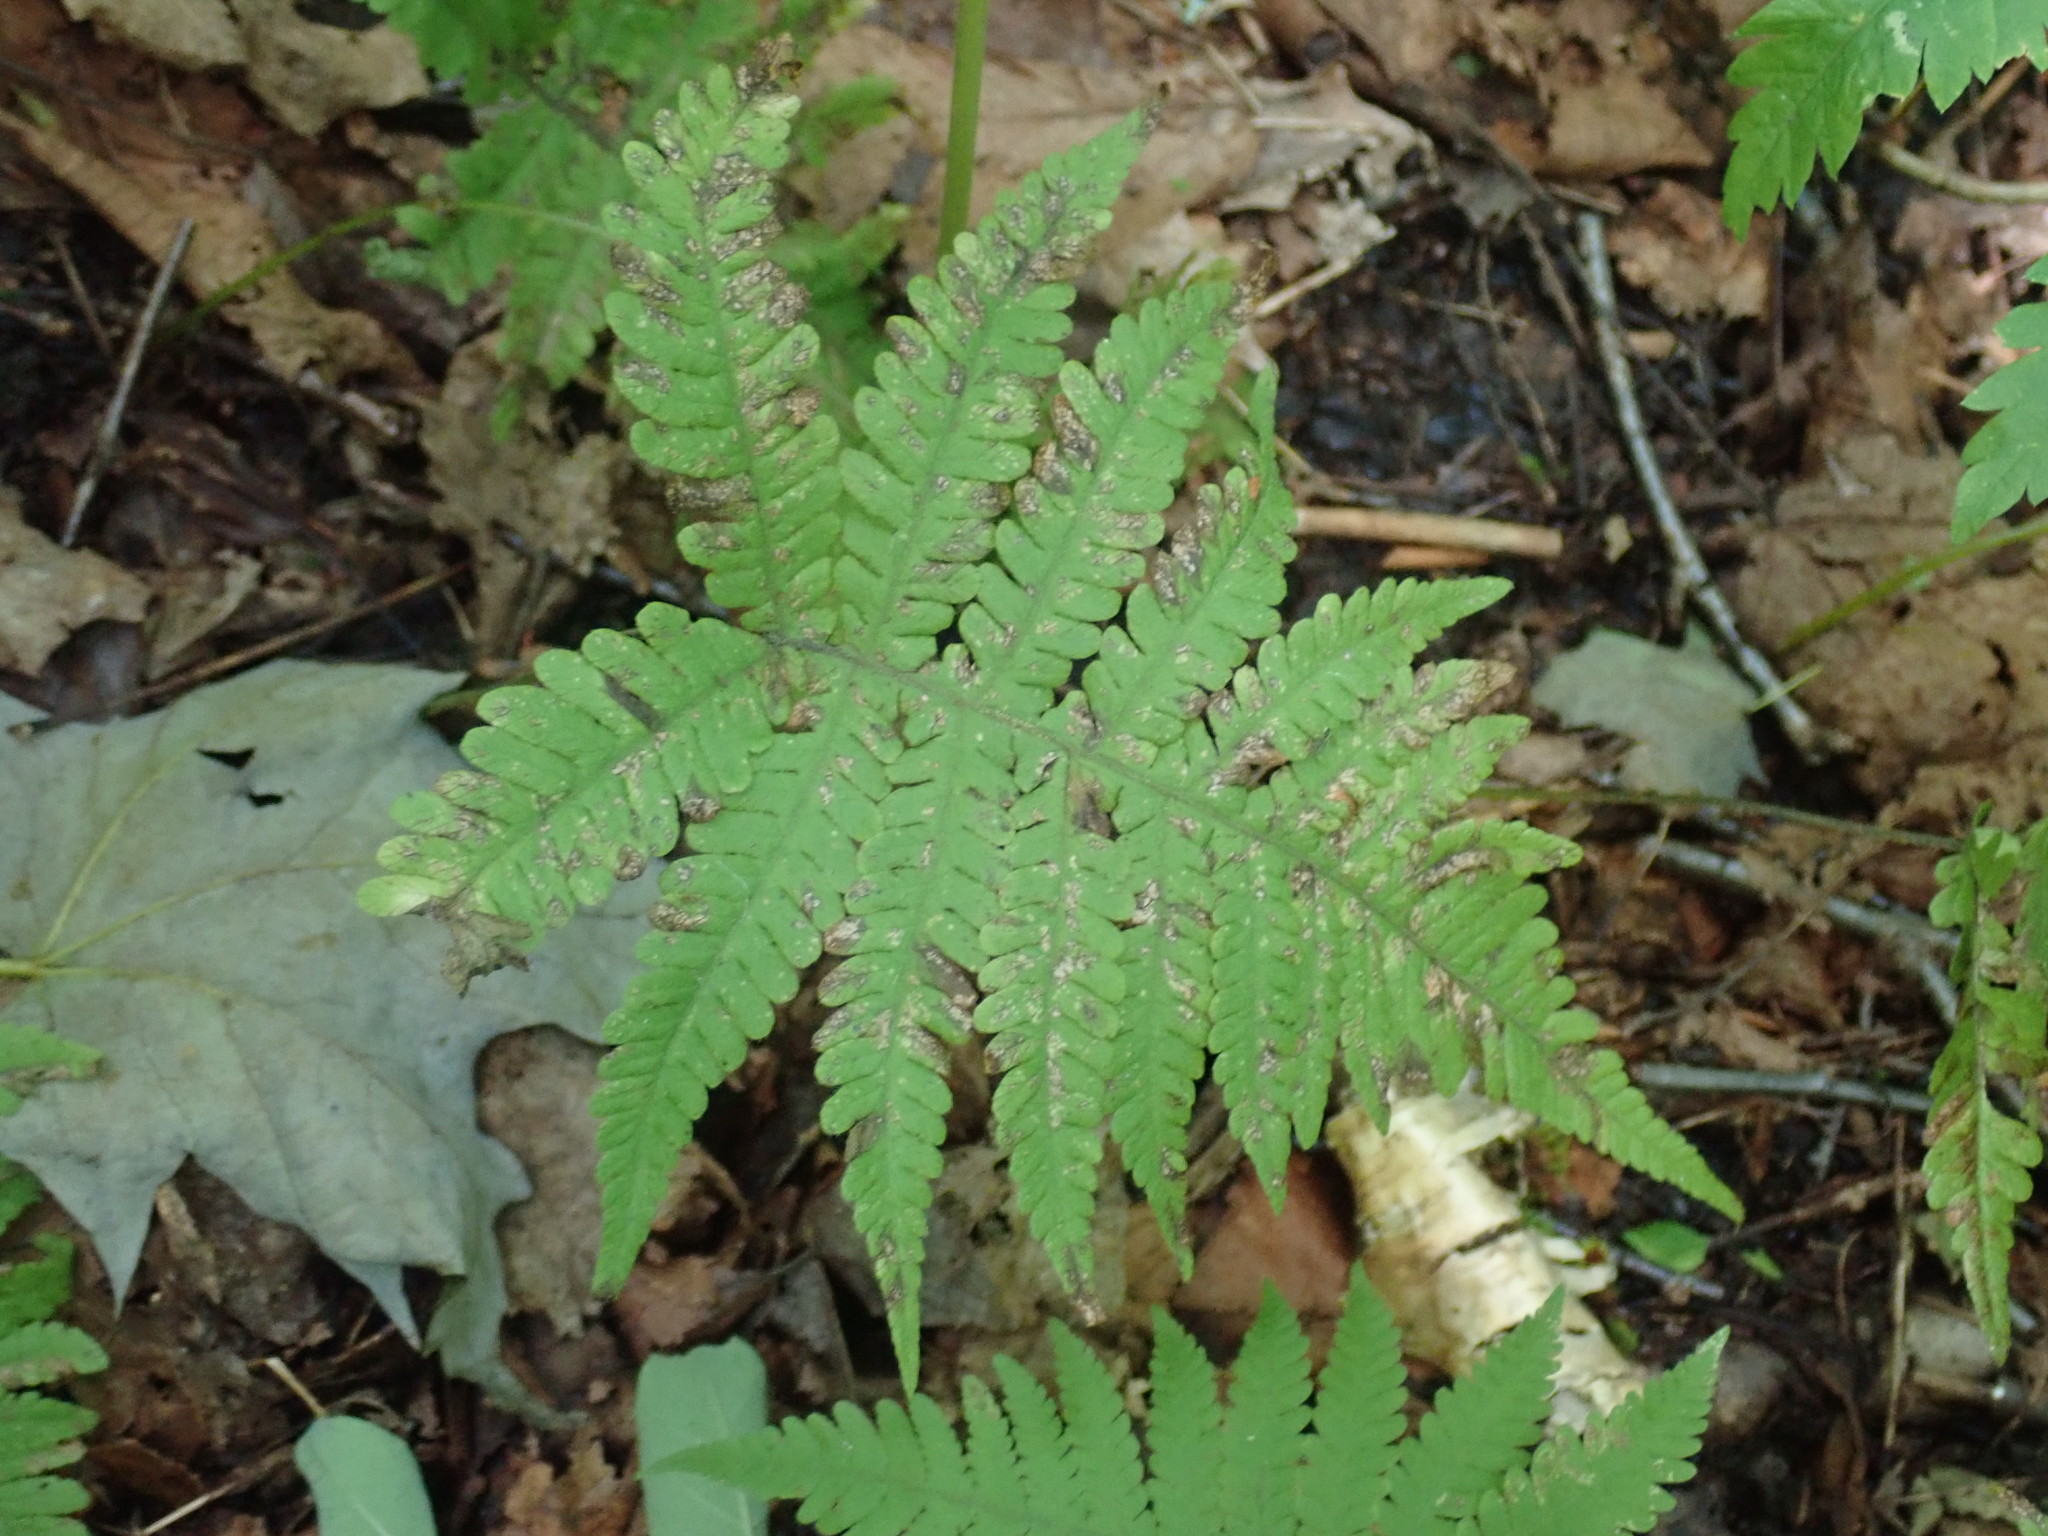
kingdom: Plantae
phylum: Tracheophyta
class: Polypodiopsida
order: Polypodiales
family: Thelypteridaceae
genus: Phegopteris
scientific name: Phegopteris connectilis
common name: Beech fern
